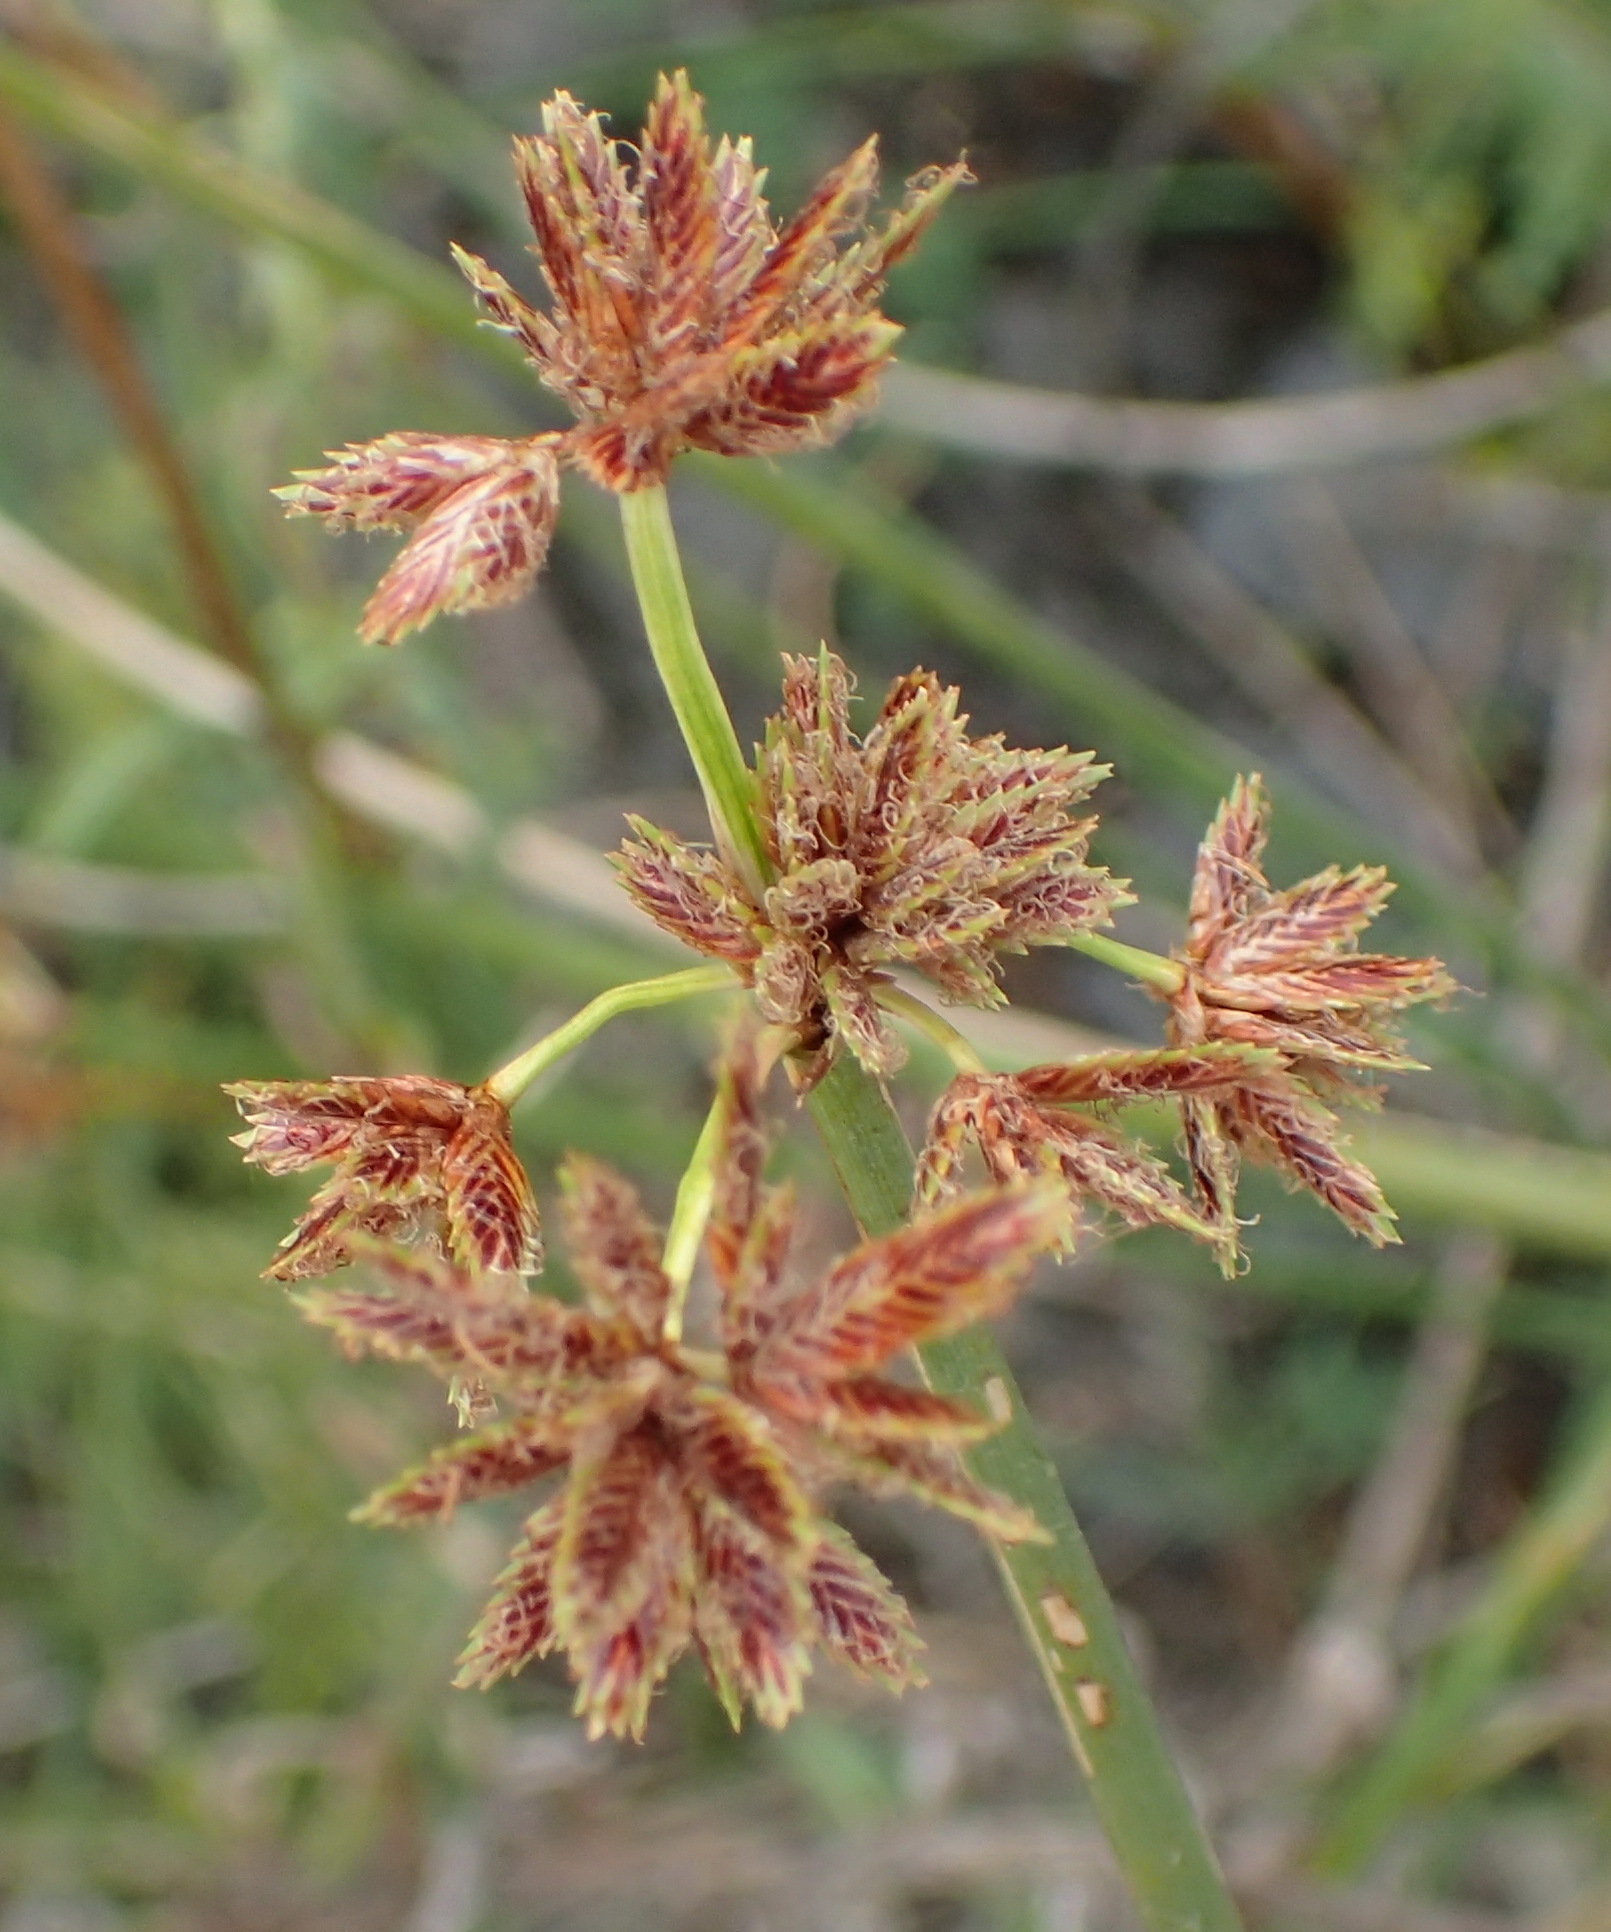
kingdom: Plantae
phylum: Tracheophyta
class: Liliopsida
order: Poales
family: Cyperaceae
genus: Cyperus
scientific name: Cyperus marginatus
